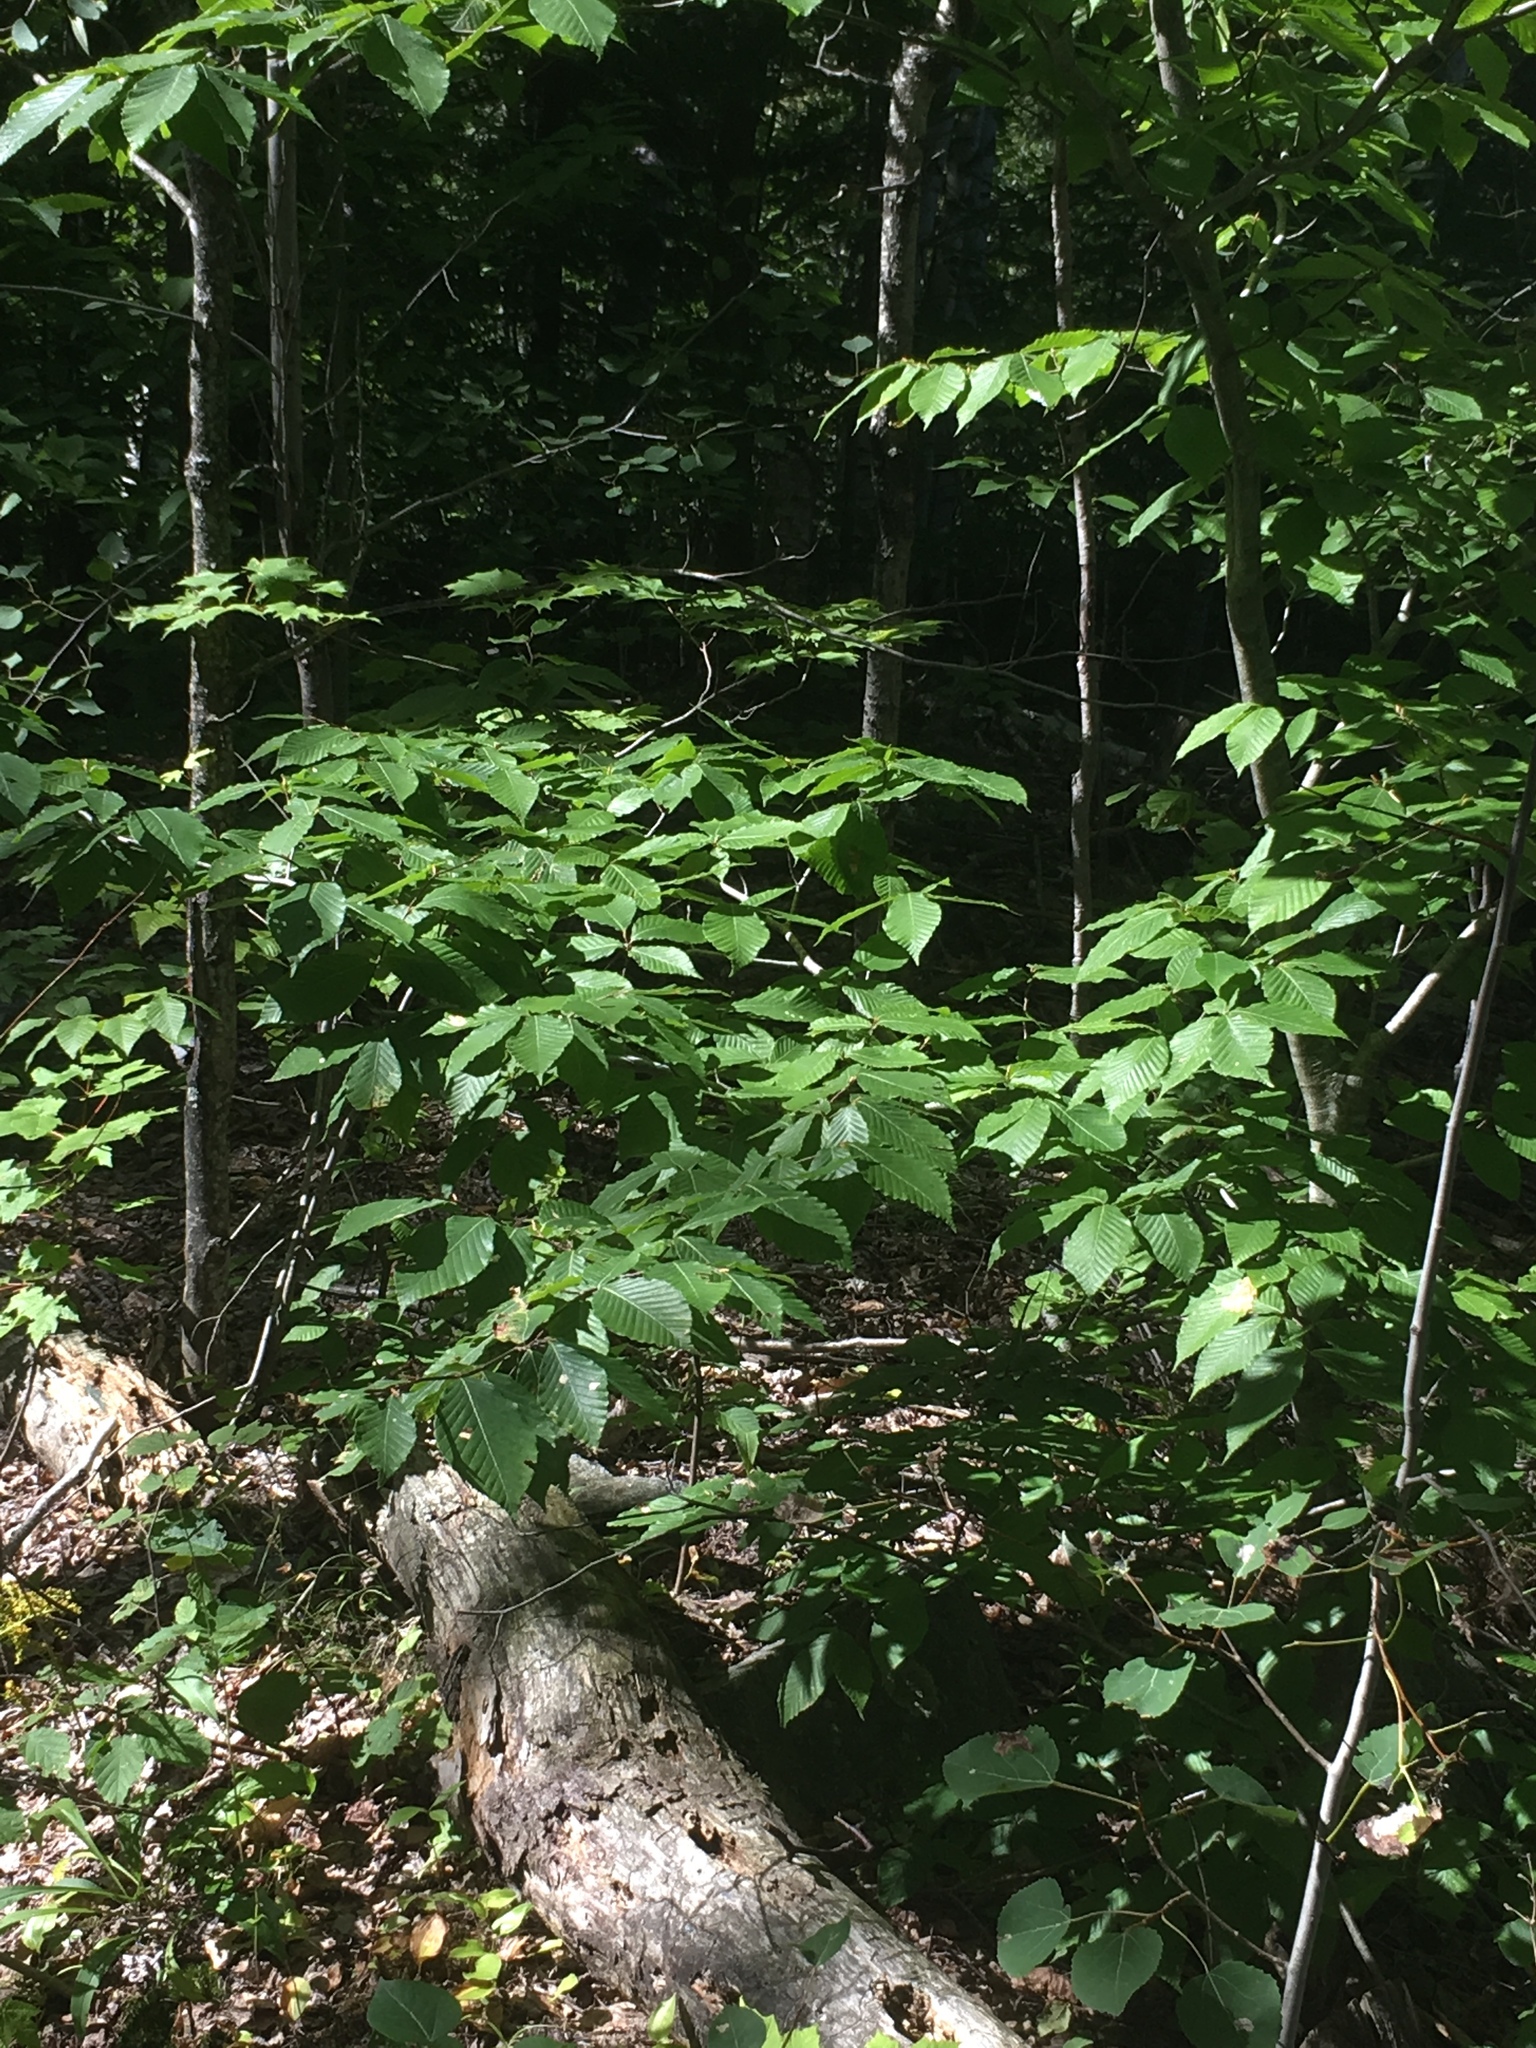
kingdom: Plantae
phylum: Tracheophyta
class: Magnoliopsida
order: Fagales
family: Fagaceae
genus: Fagus
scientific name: Fagus grandifolia
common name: American beech
